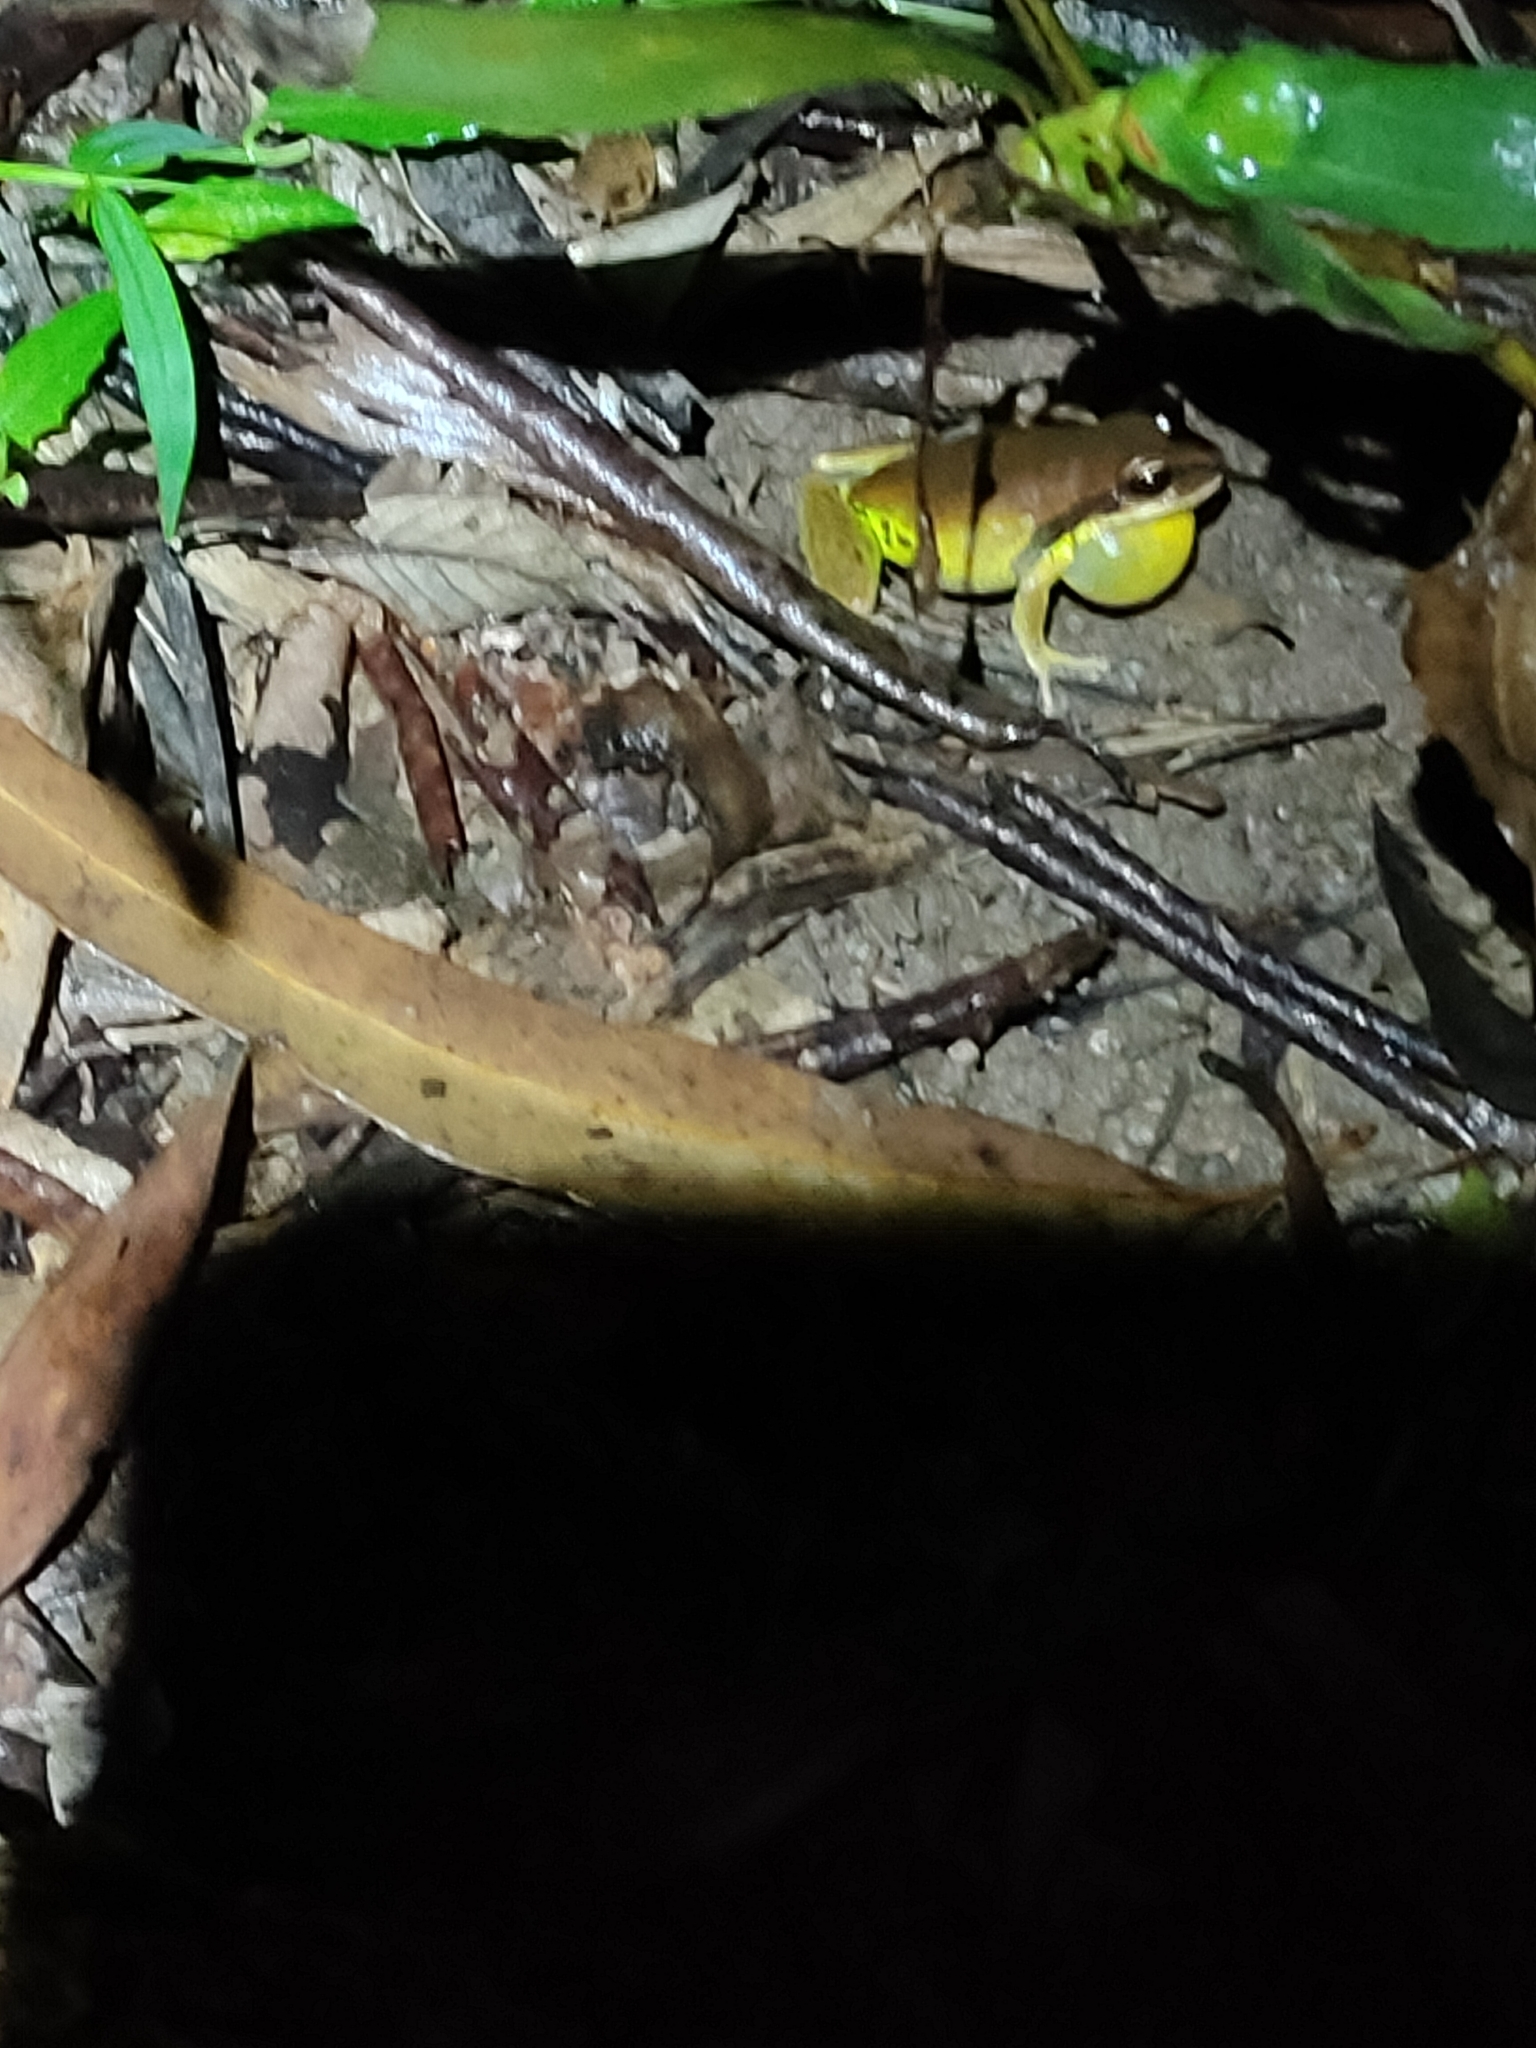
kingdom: Animalia
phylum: Chordata
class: Amphibia
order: Anura
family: Pelodryadidae
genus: Nyctimystes
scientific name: Nyctimystes brevipalmatus
